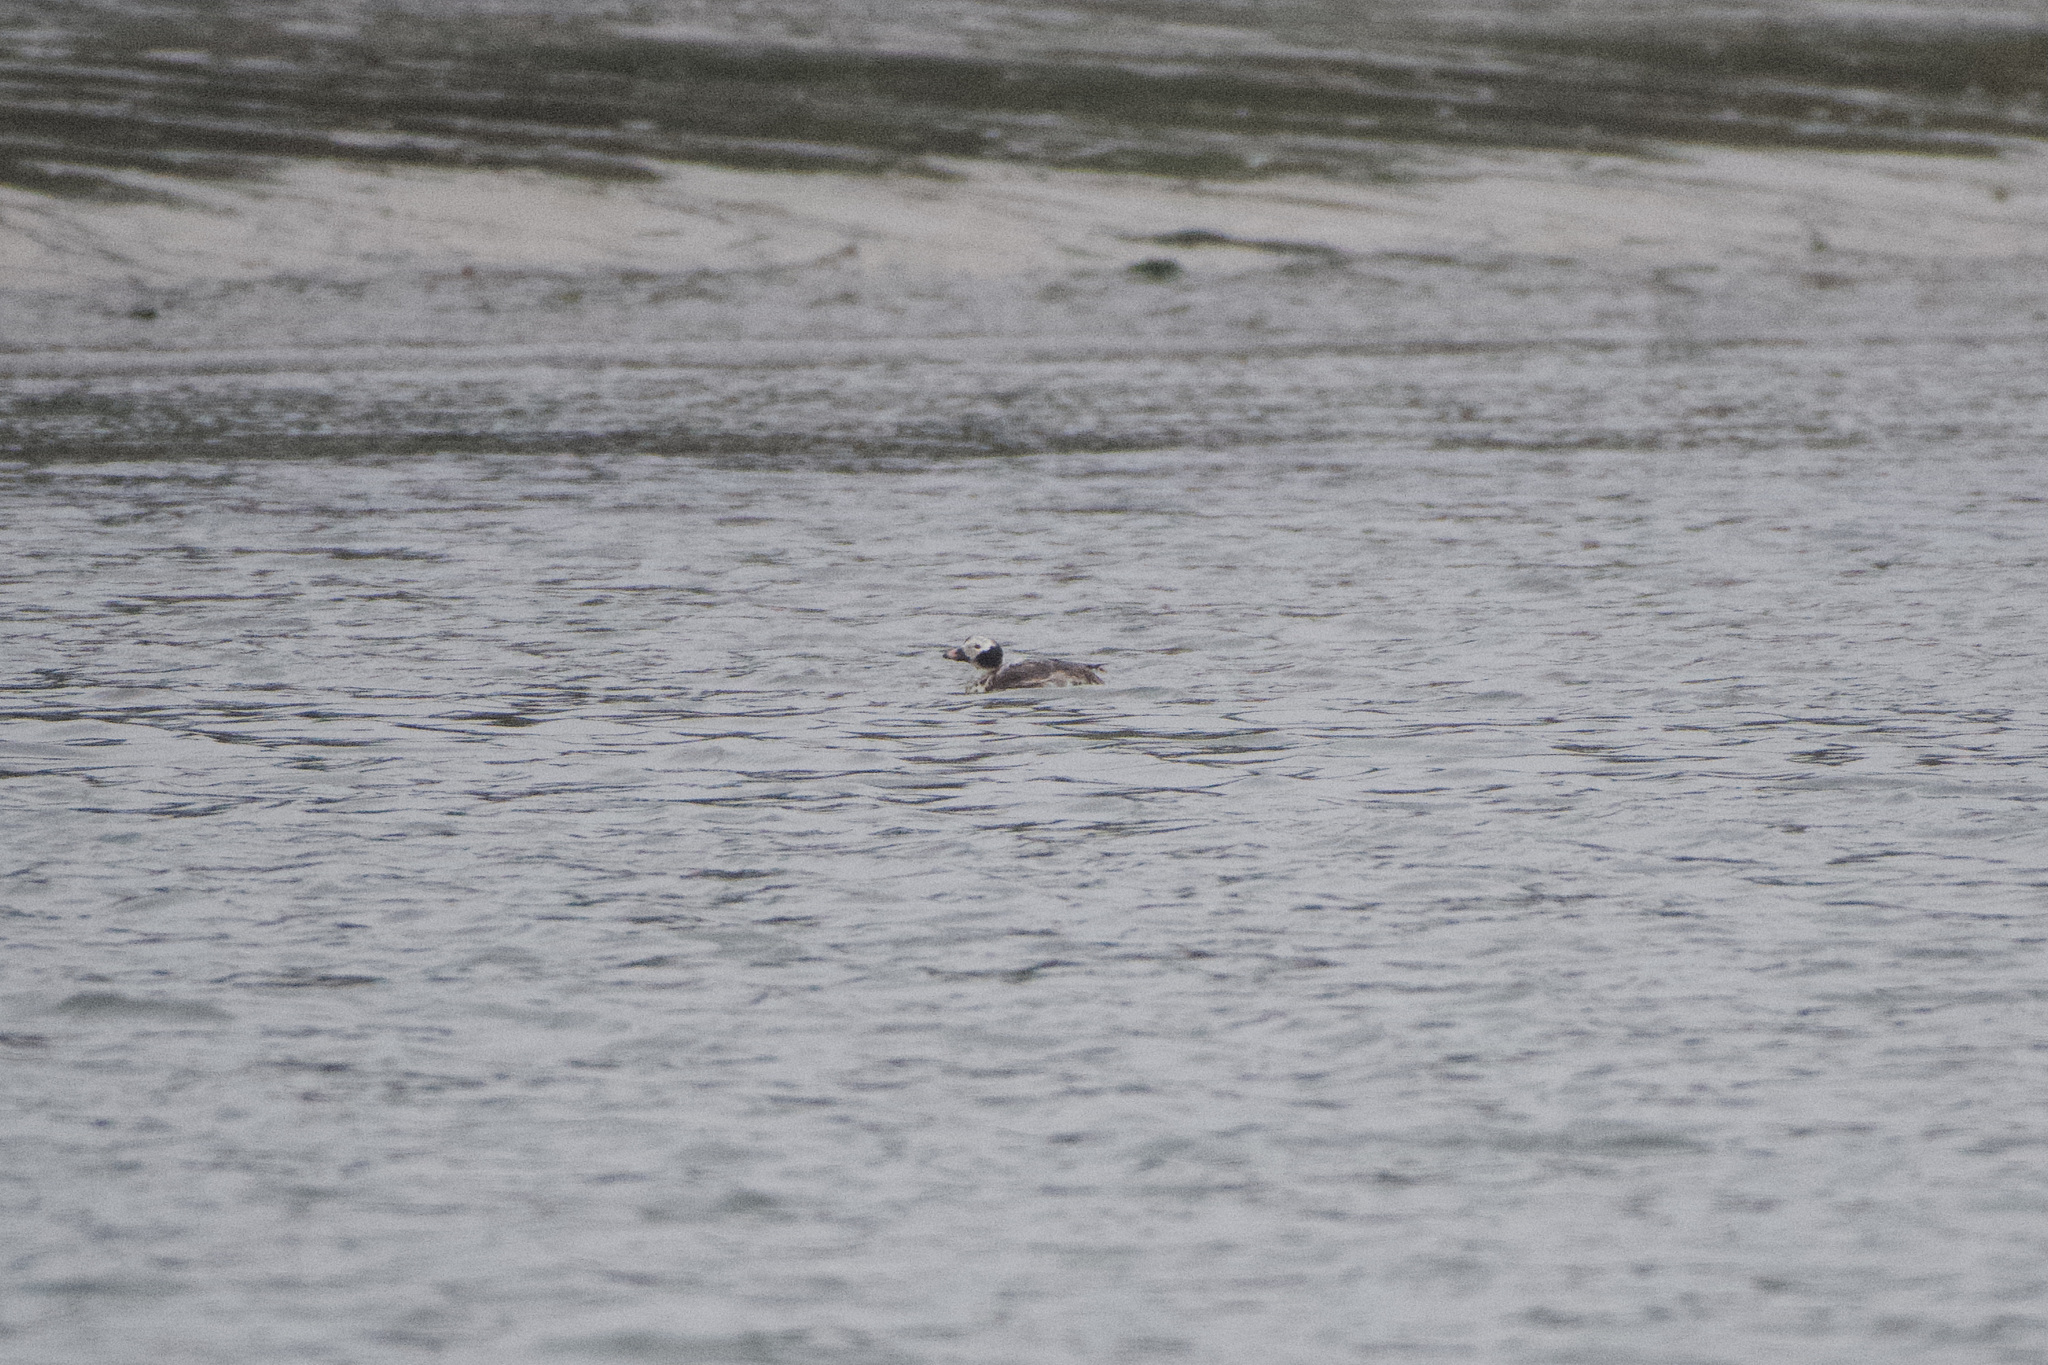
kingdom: Animalia
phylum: Chordata
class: Aves
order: Anseriformes
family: Anatidae
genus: Clangula
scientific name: Clangula hyemalis
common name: Long-tailed duck
